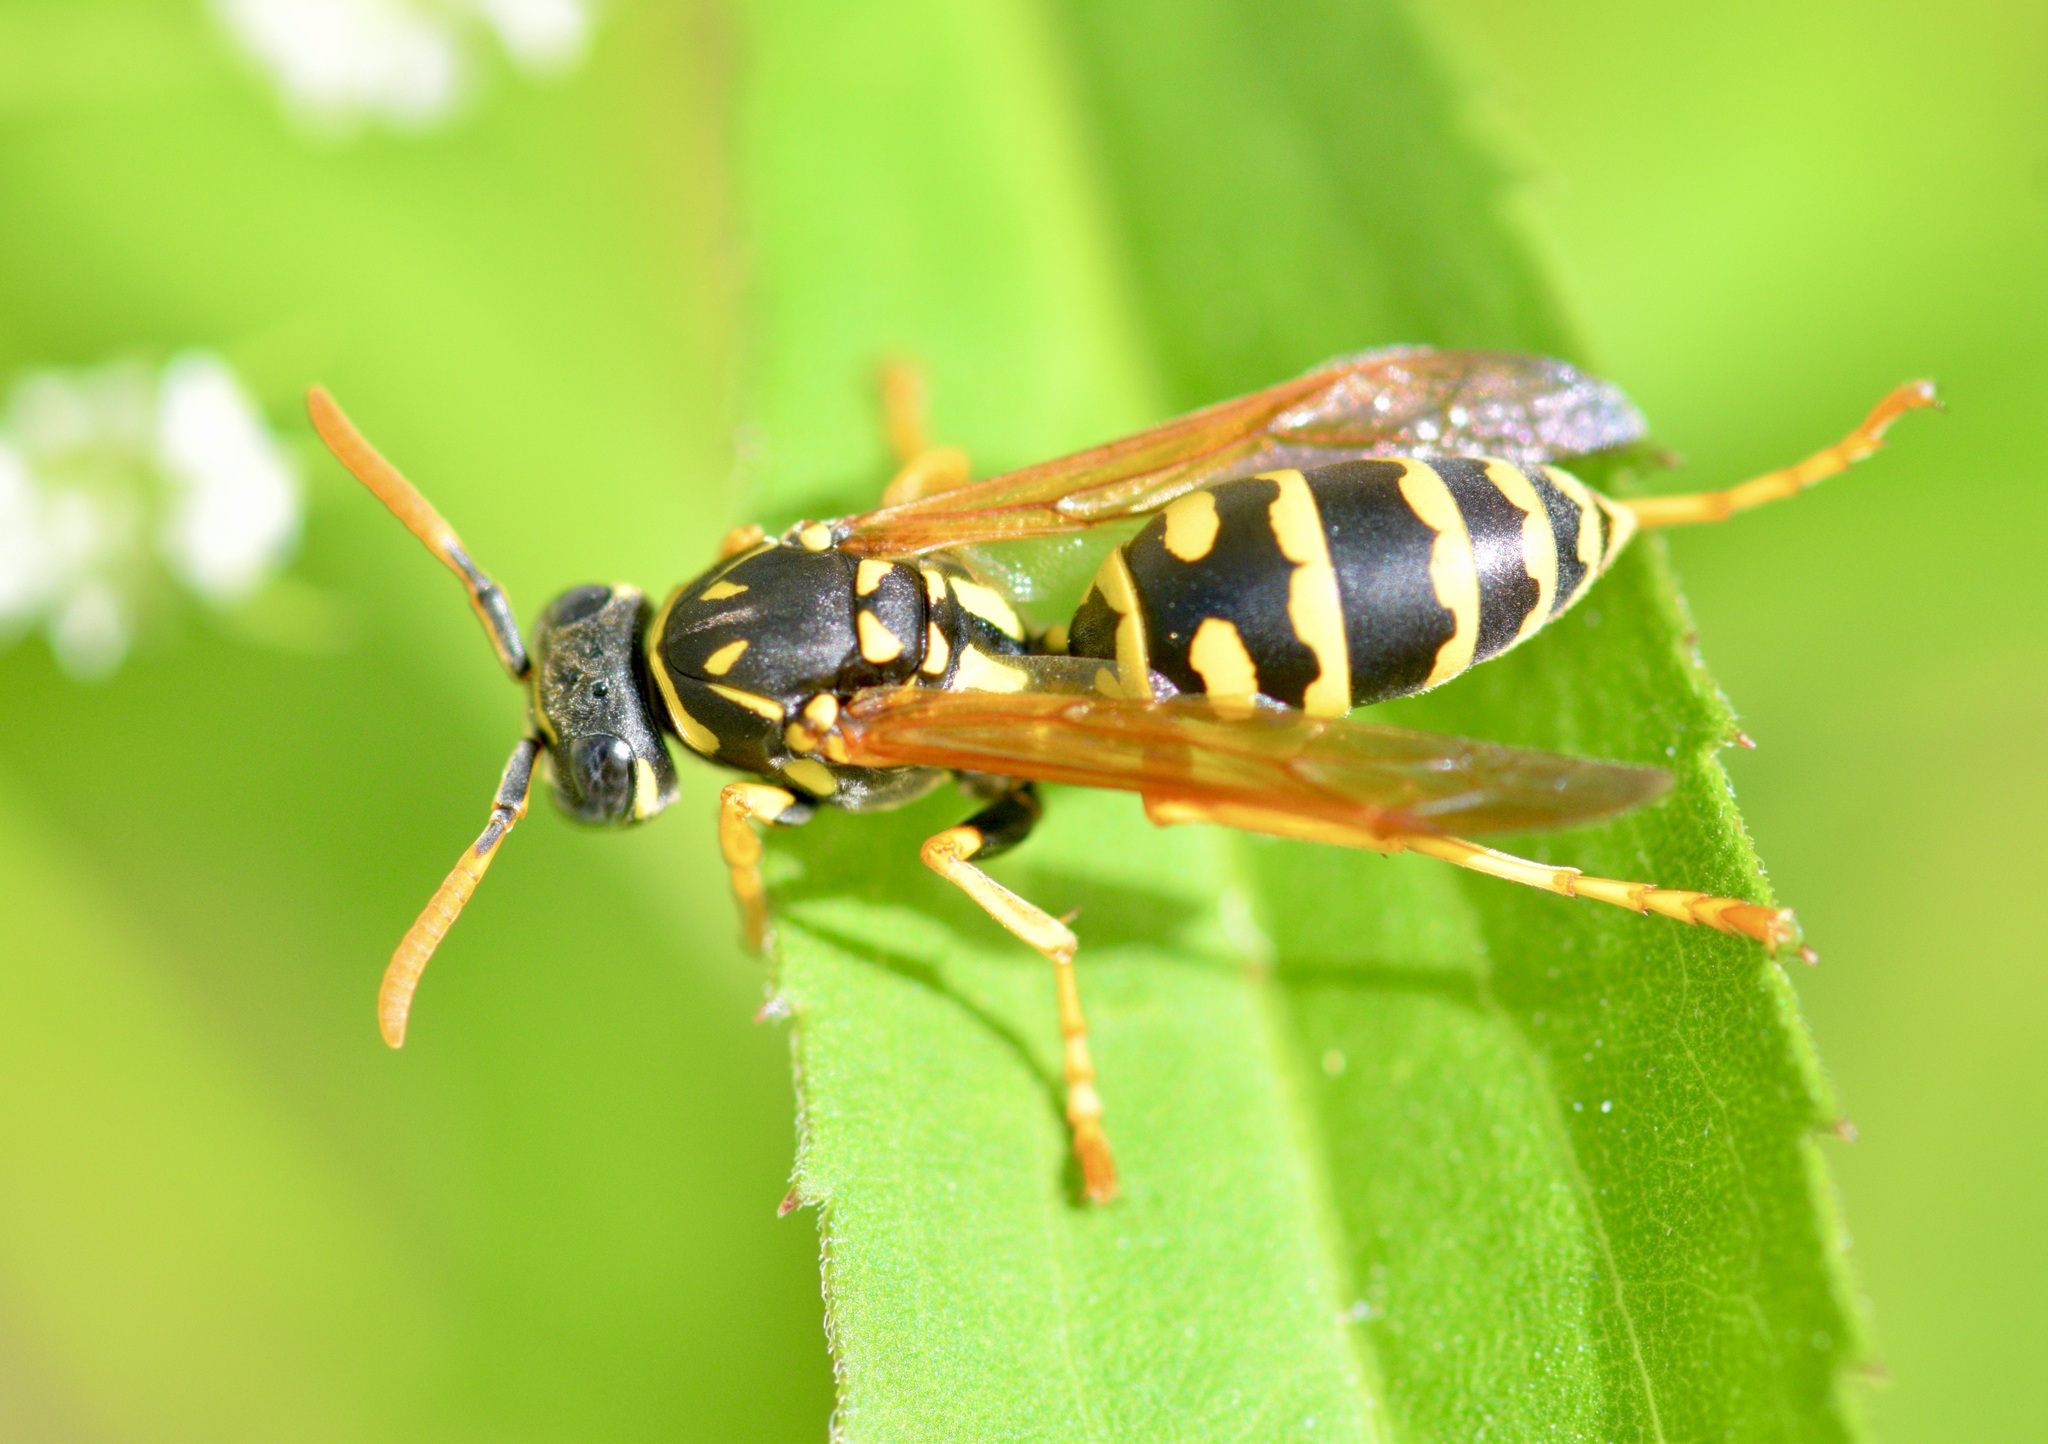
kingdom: Animalia
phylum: Arthropoda
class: Insecta
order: Hymenoptera
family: Eumenidae
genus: Polistes
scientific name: Polistes dominula
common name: Paper wasp
